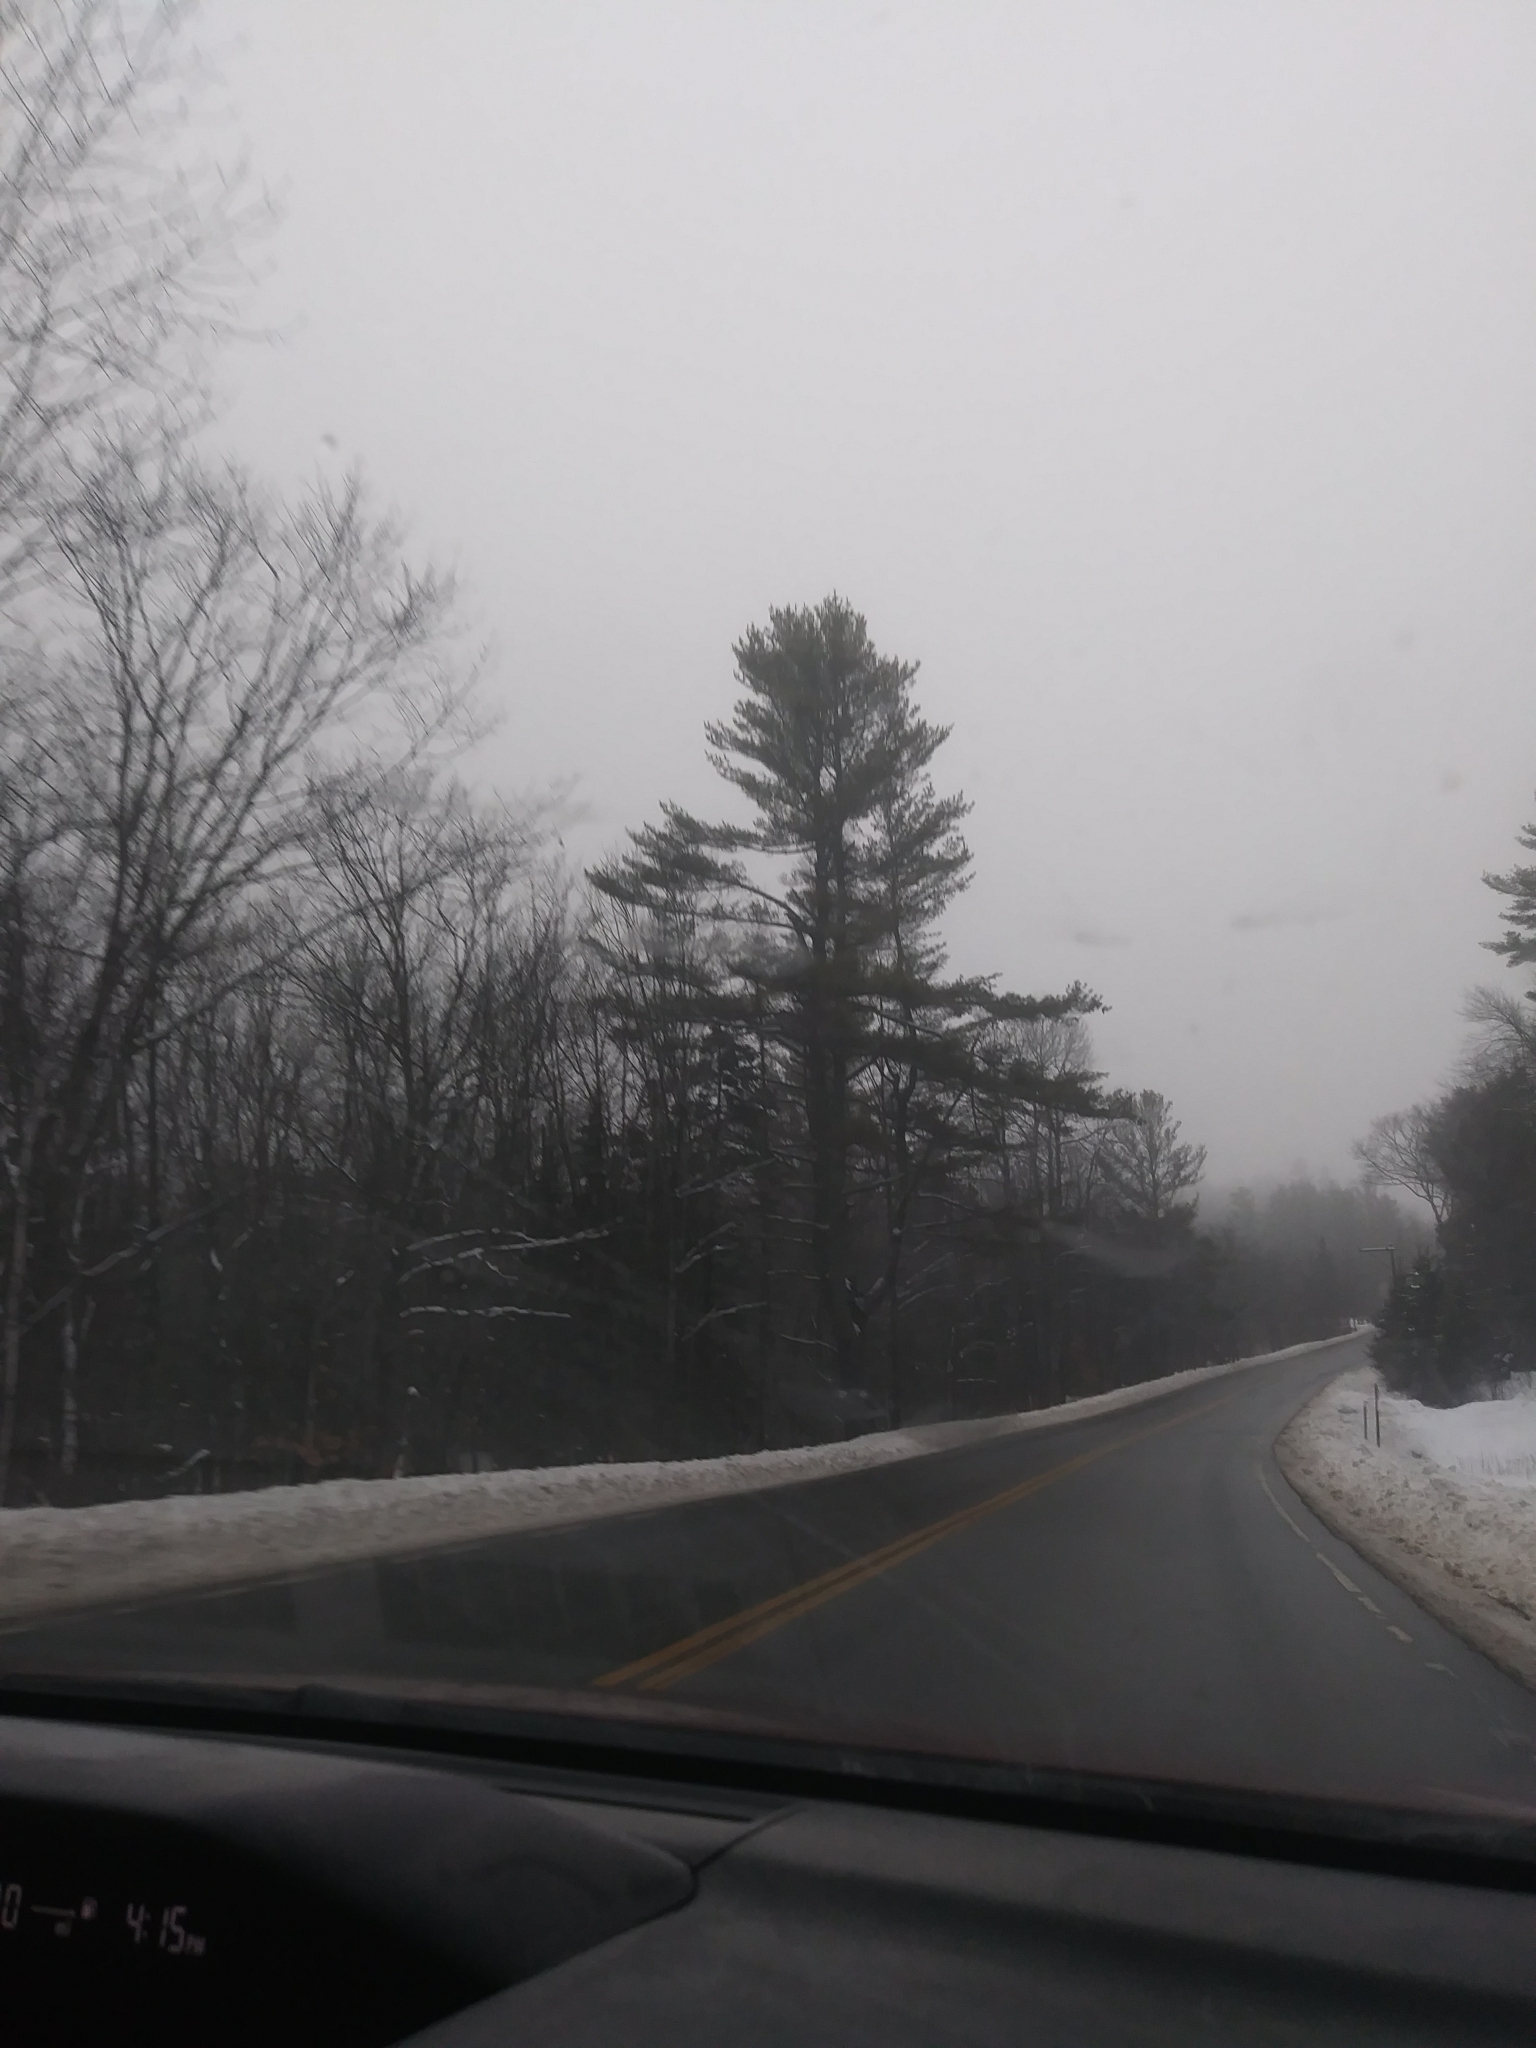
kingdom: Plantae
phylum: Tracheophyta
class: Pinopsida
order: Pinales
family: Pinaceae
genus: Pinus
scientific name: Pinus strobus
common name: Weymouth pine
